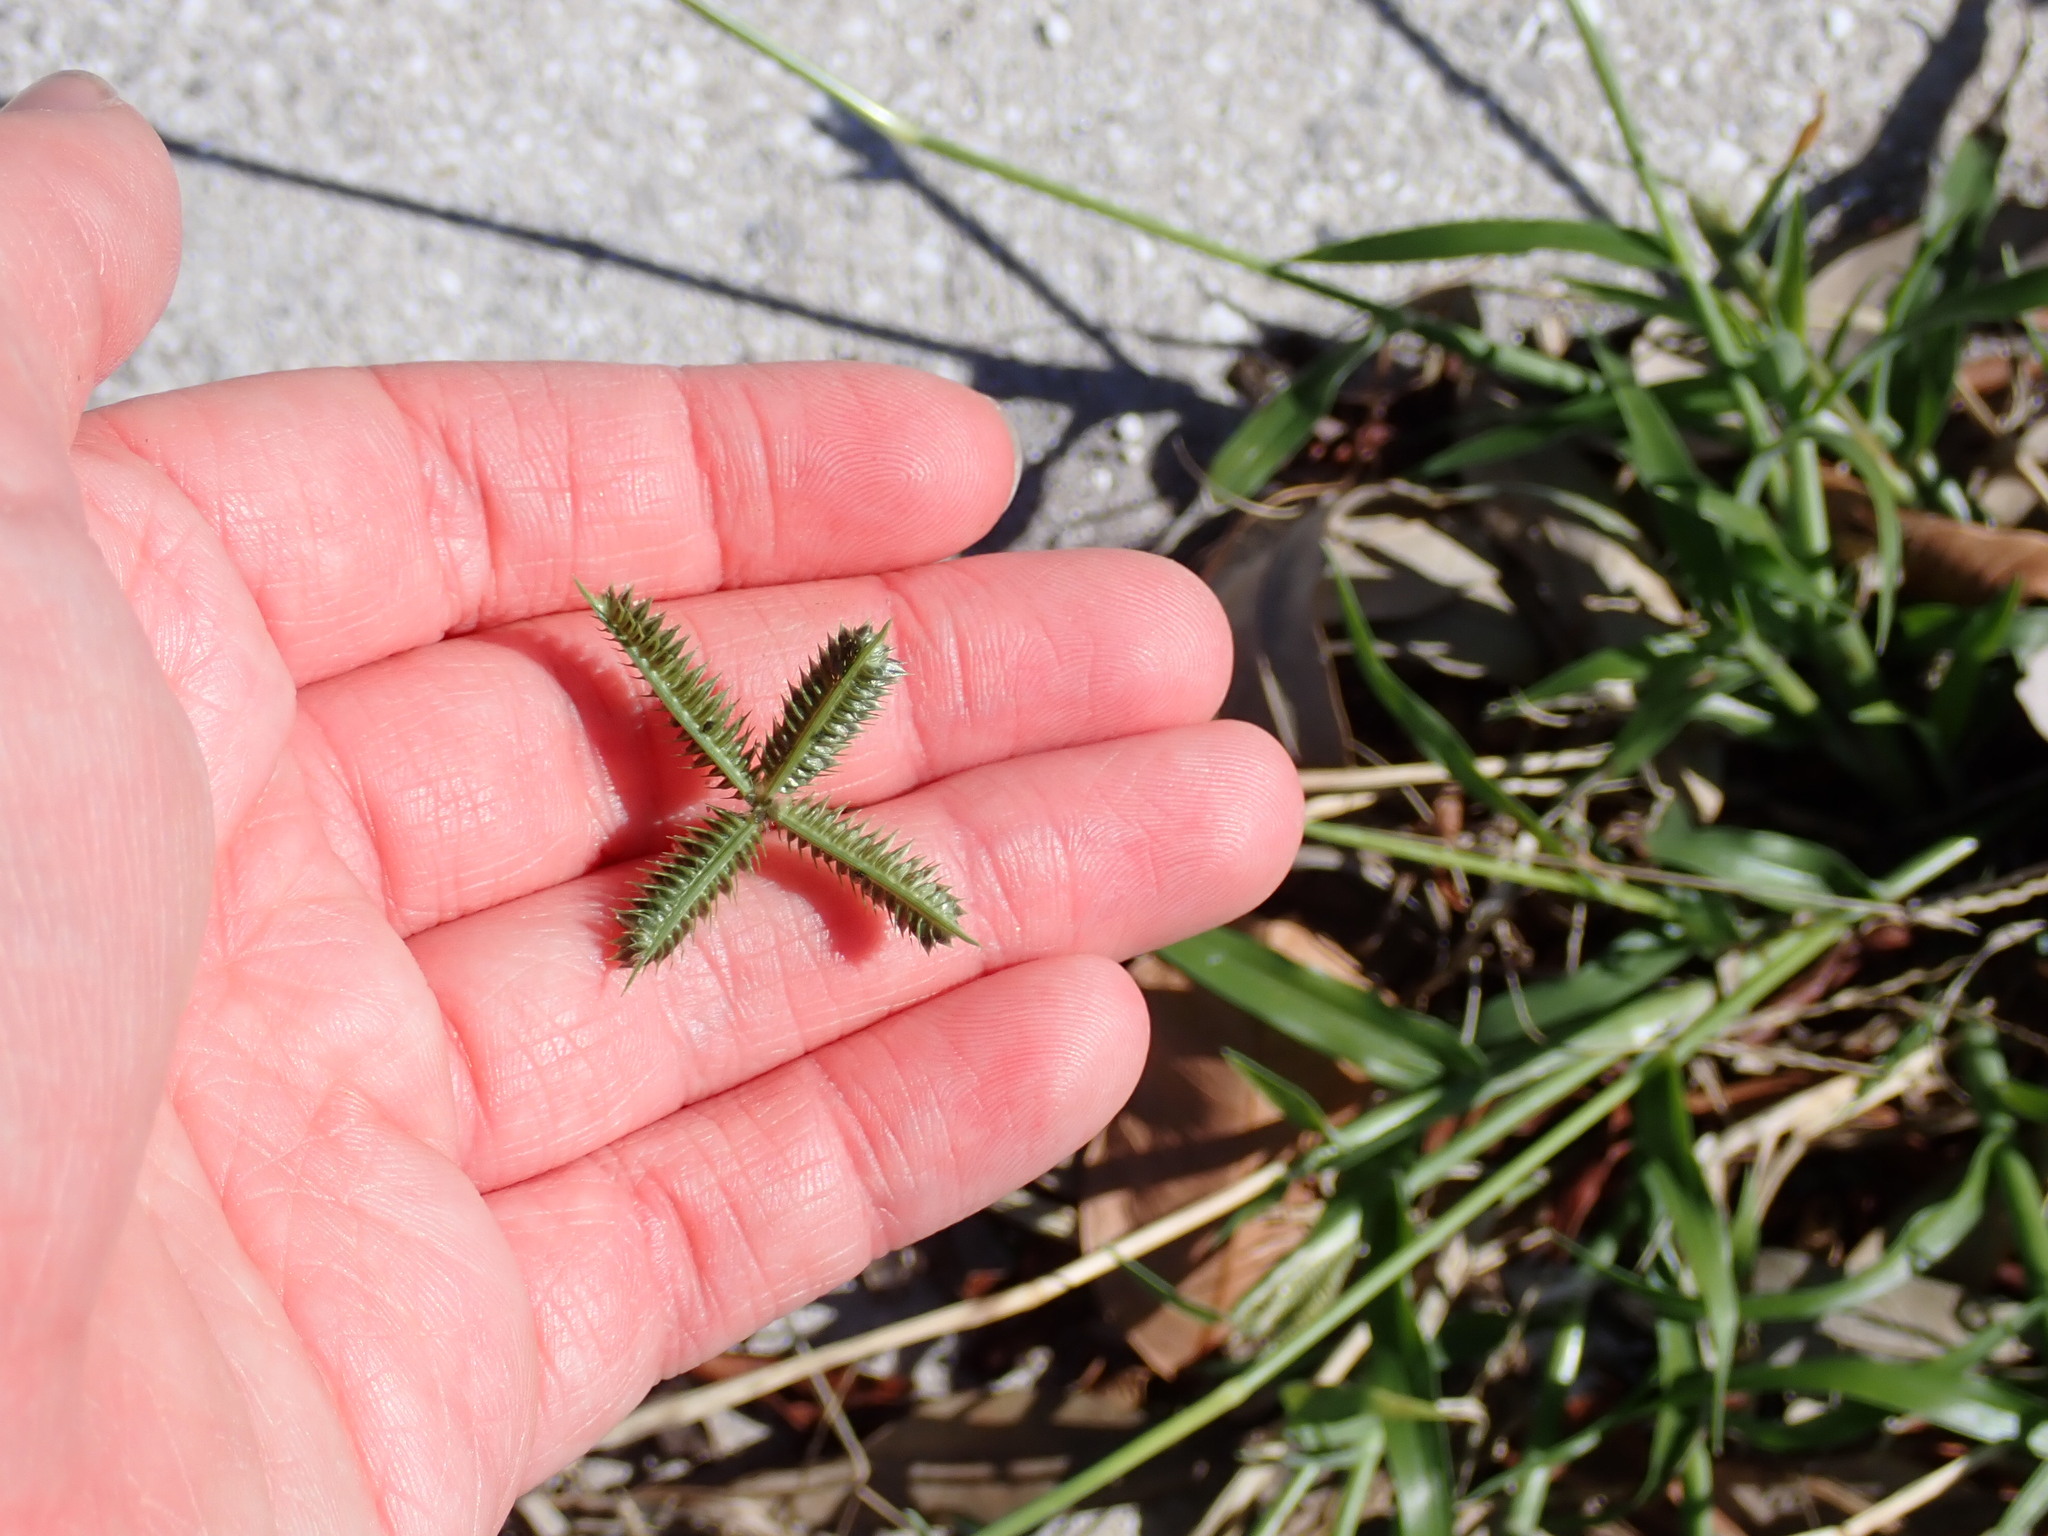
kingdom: Plantae
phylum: Tracheophyta
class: Liliopsida
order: Poales
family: Poaceae
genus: Dactyloctenium
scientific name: Dactyloctenium aegyptium
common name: Egyptian grass
